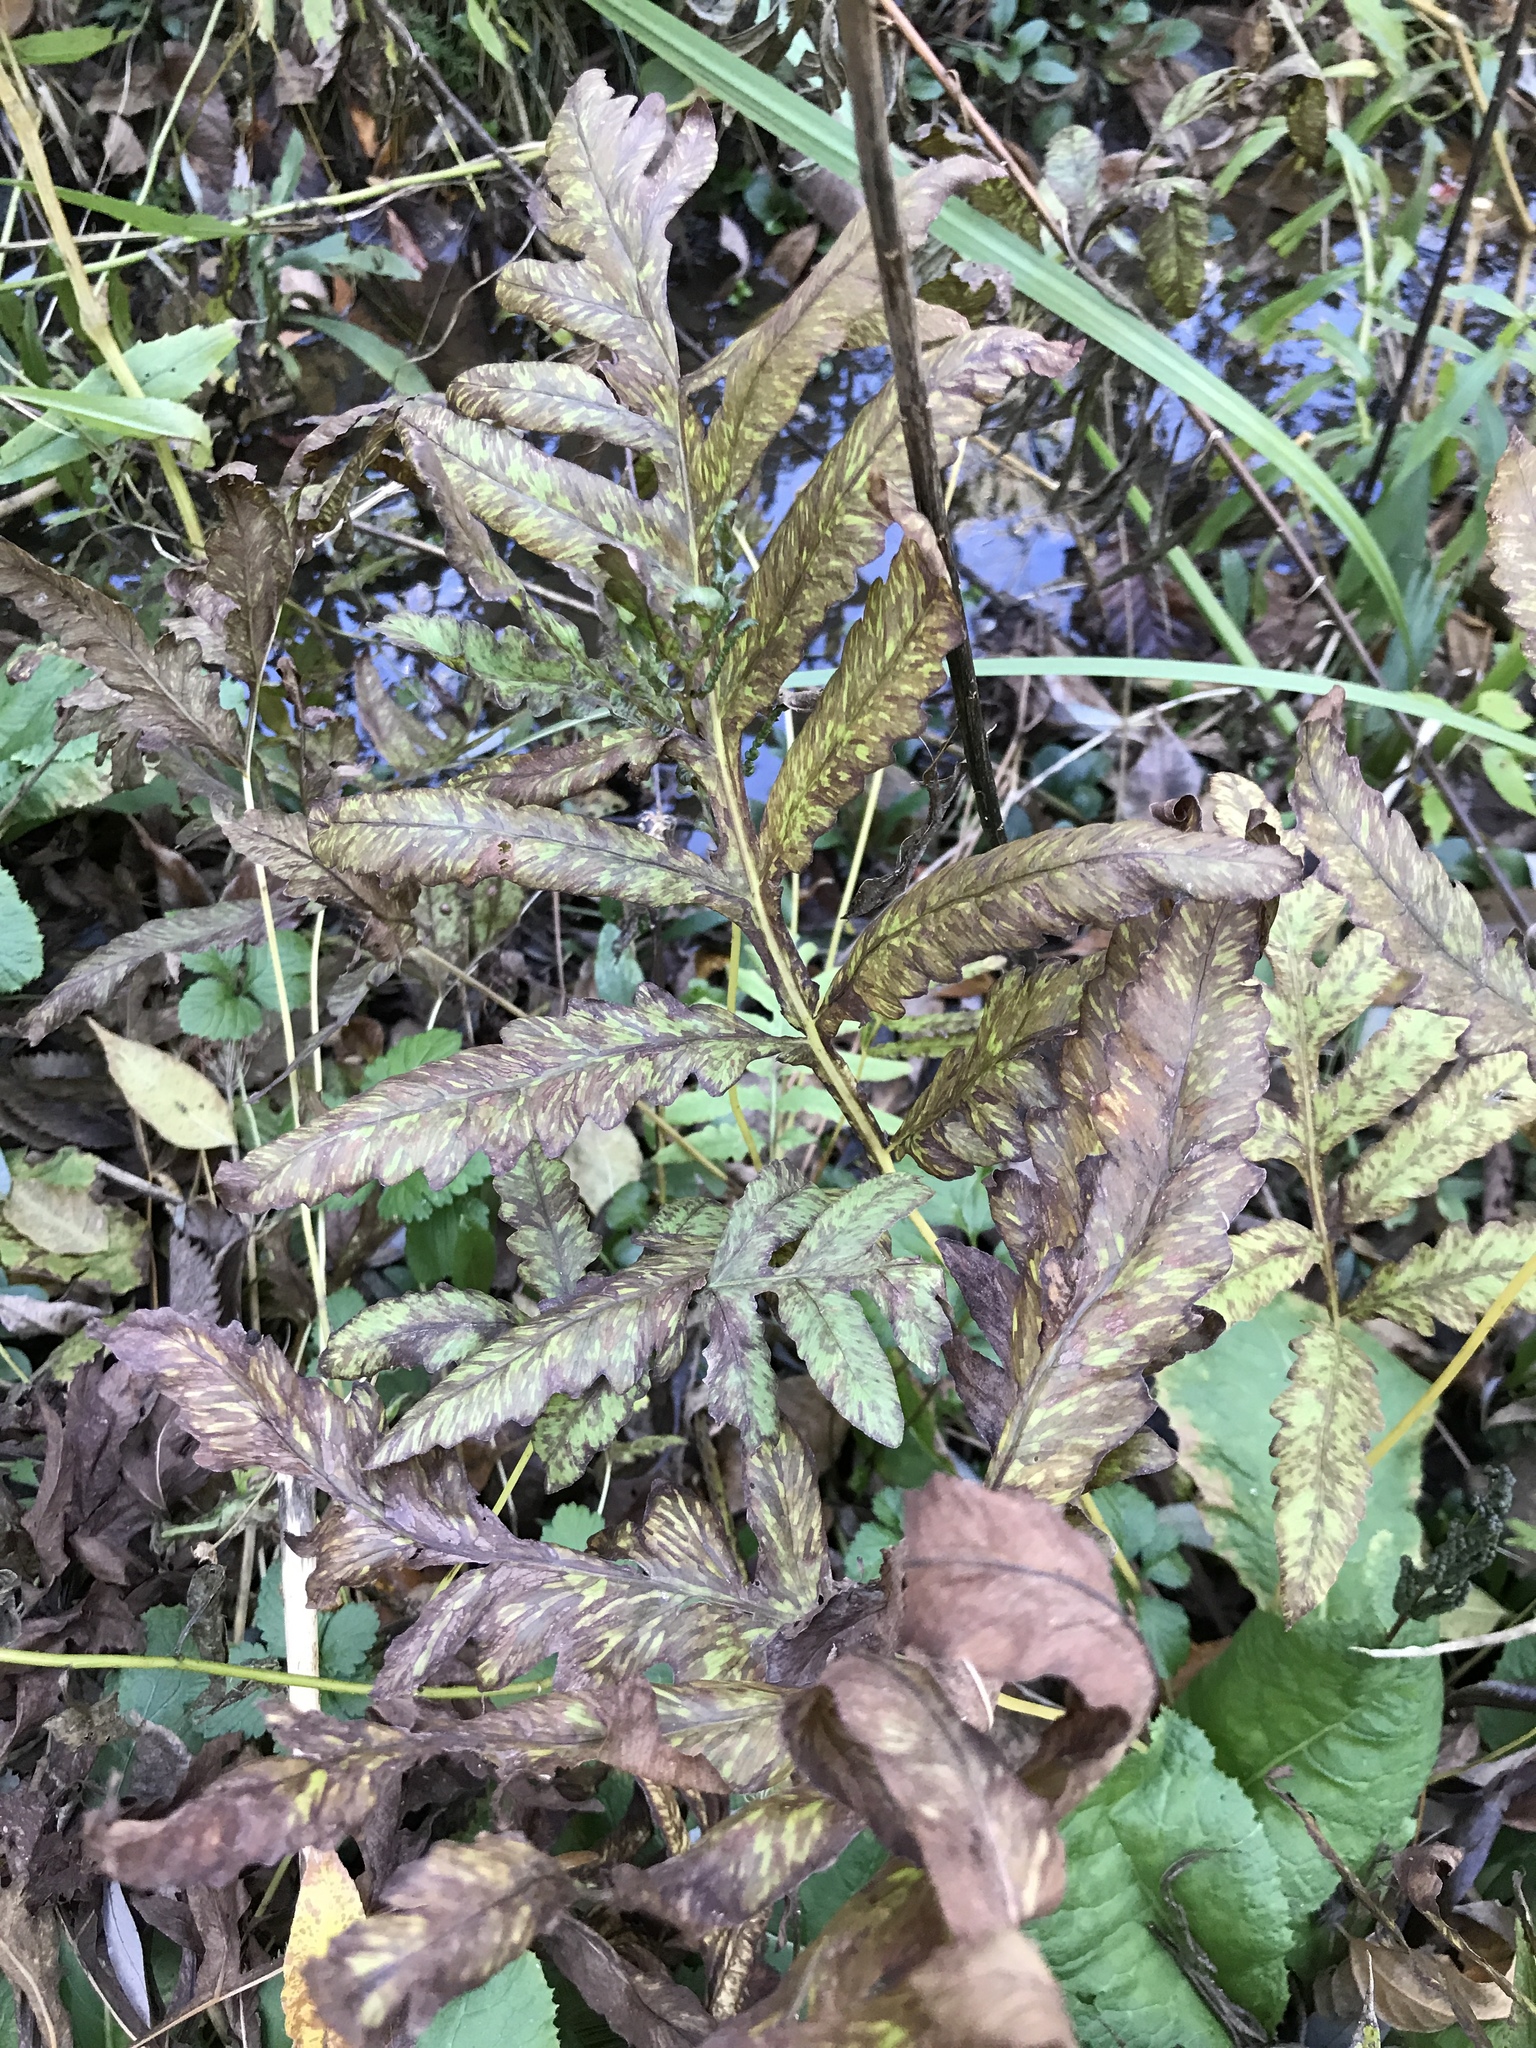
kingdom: Plantae
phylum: Tracheophyta
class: Polypodiopsida
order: Polypodiales
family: Onocleaceae
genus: Onoclea
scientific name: Onoclea sensibilis
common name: Sensitive fern
